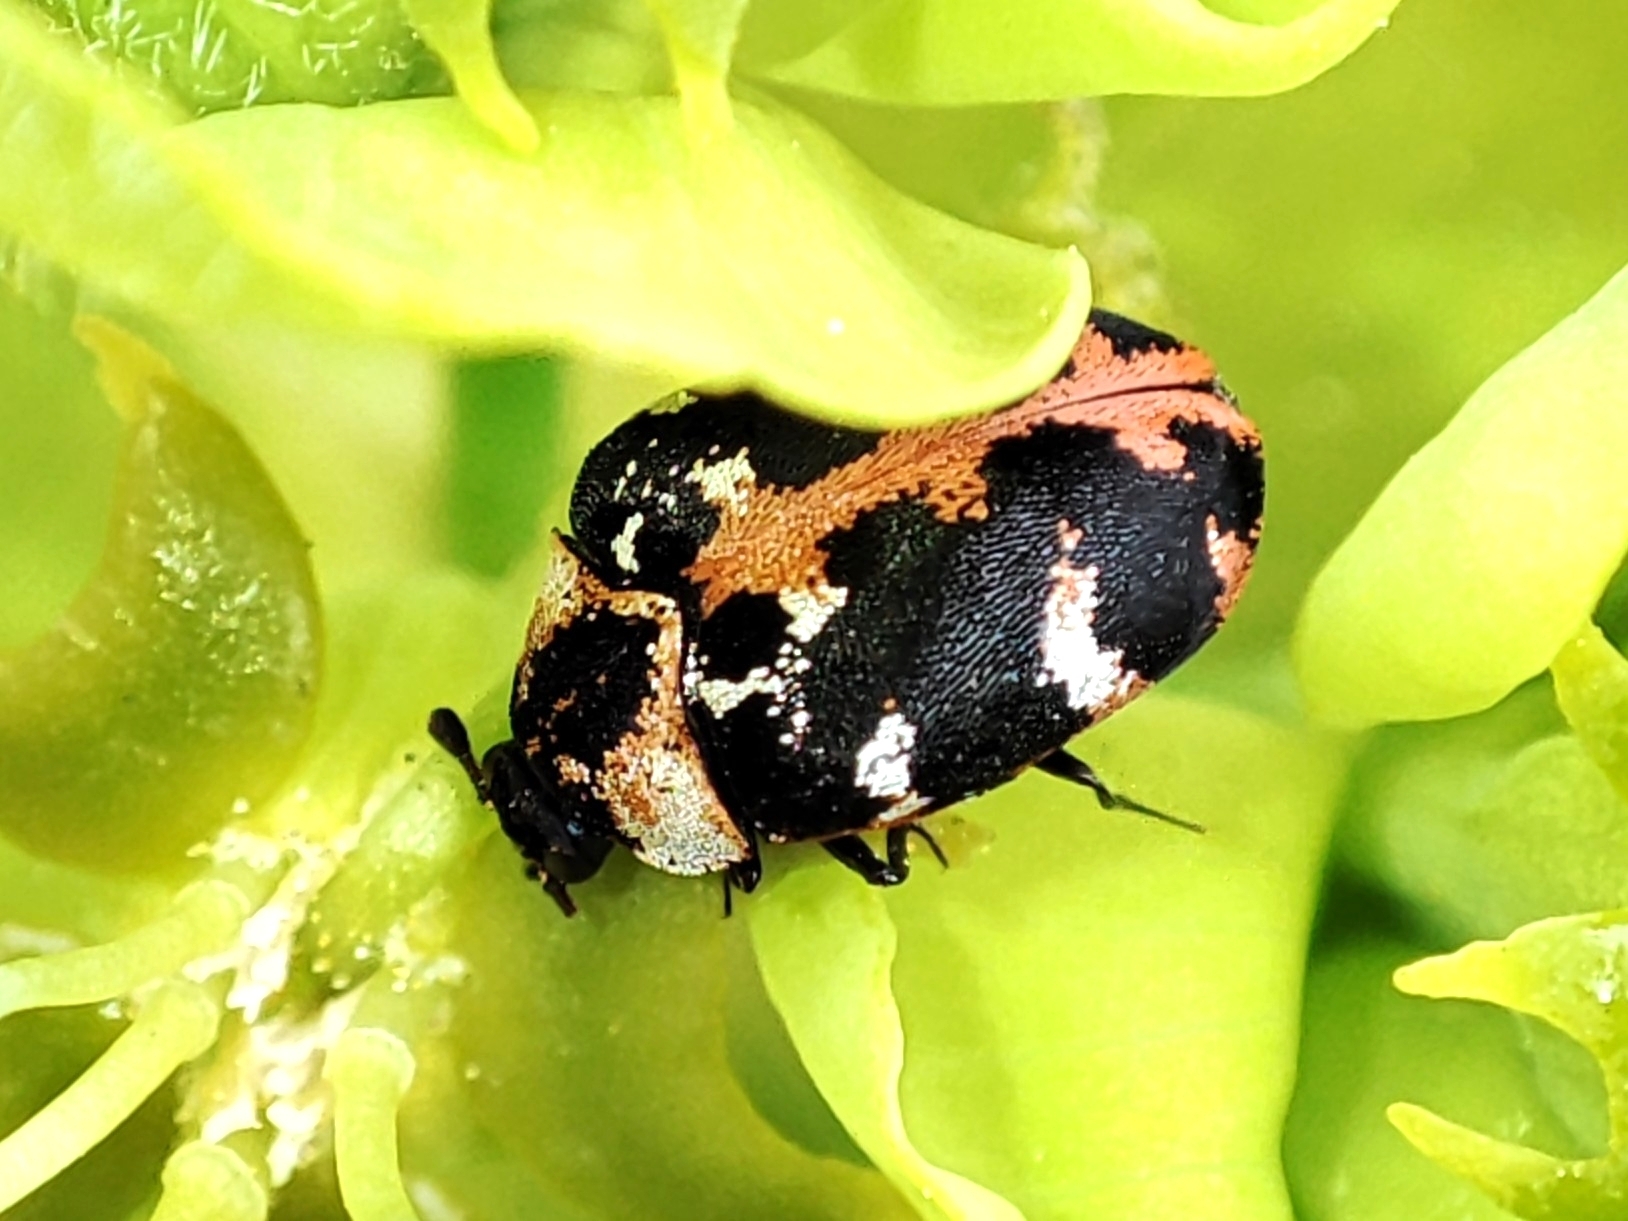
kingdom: Animalia
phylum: Arthropoda
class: Insecta
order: Coleoptera
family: Dermestidae
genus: Anthrenus
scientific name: Anthrenus scrophulariae
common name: Buffalo carpet beetle
